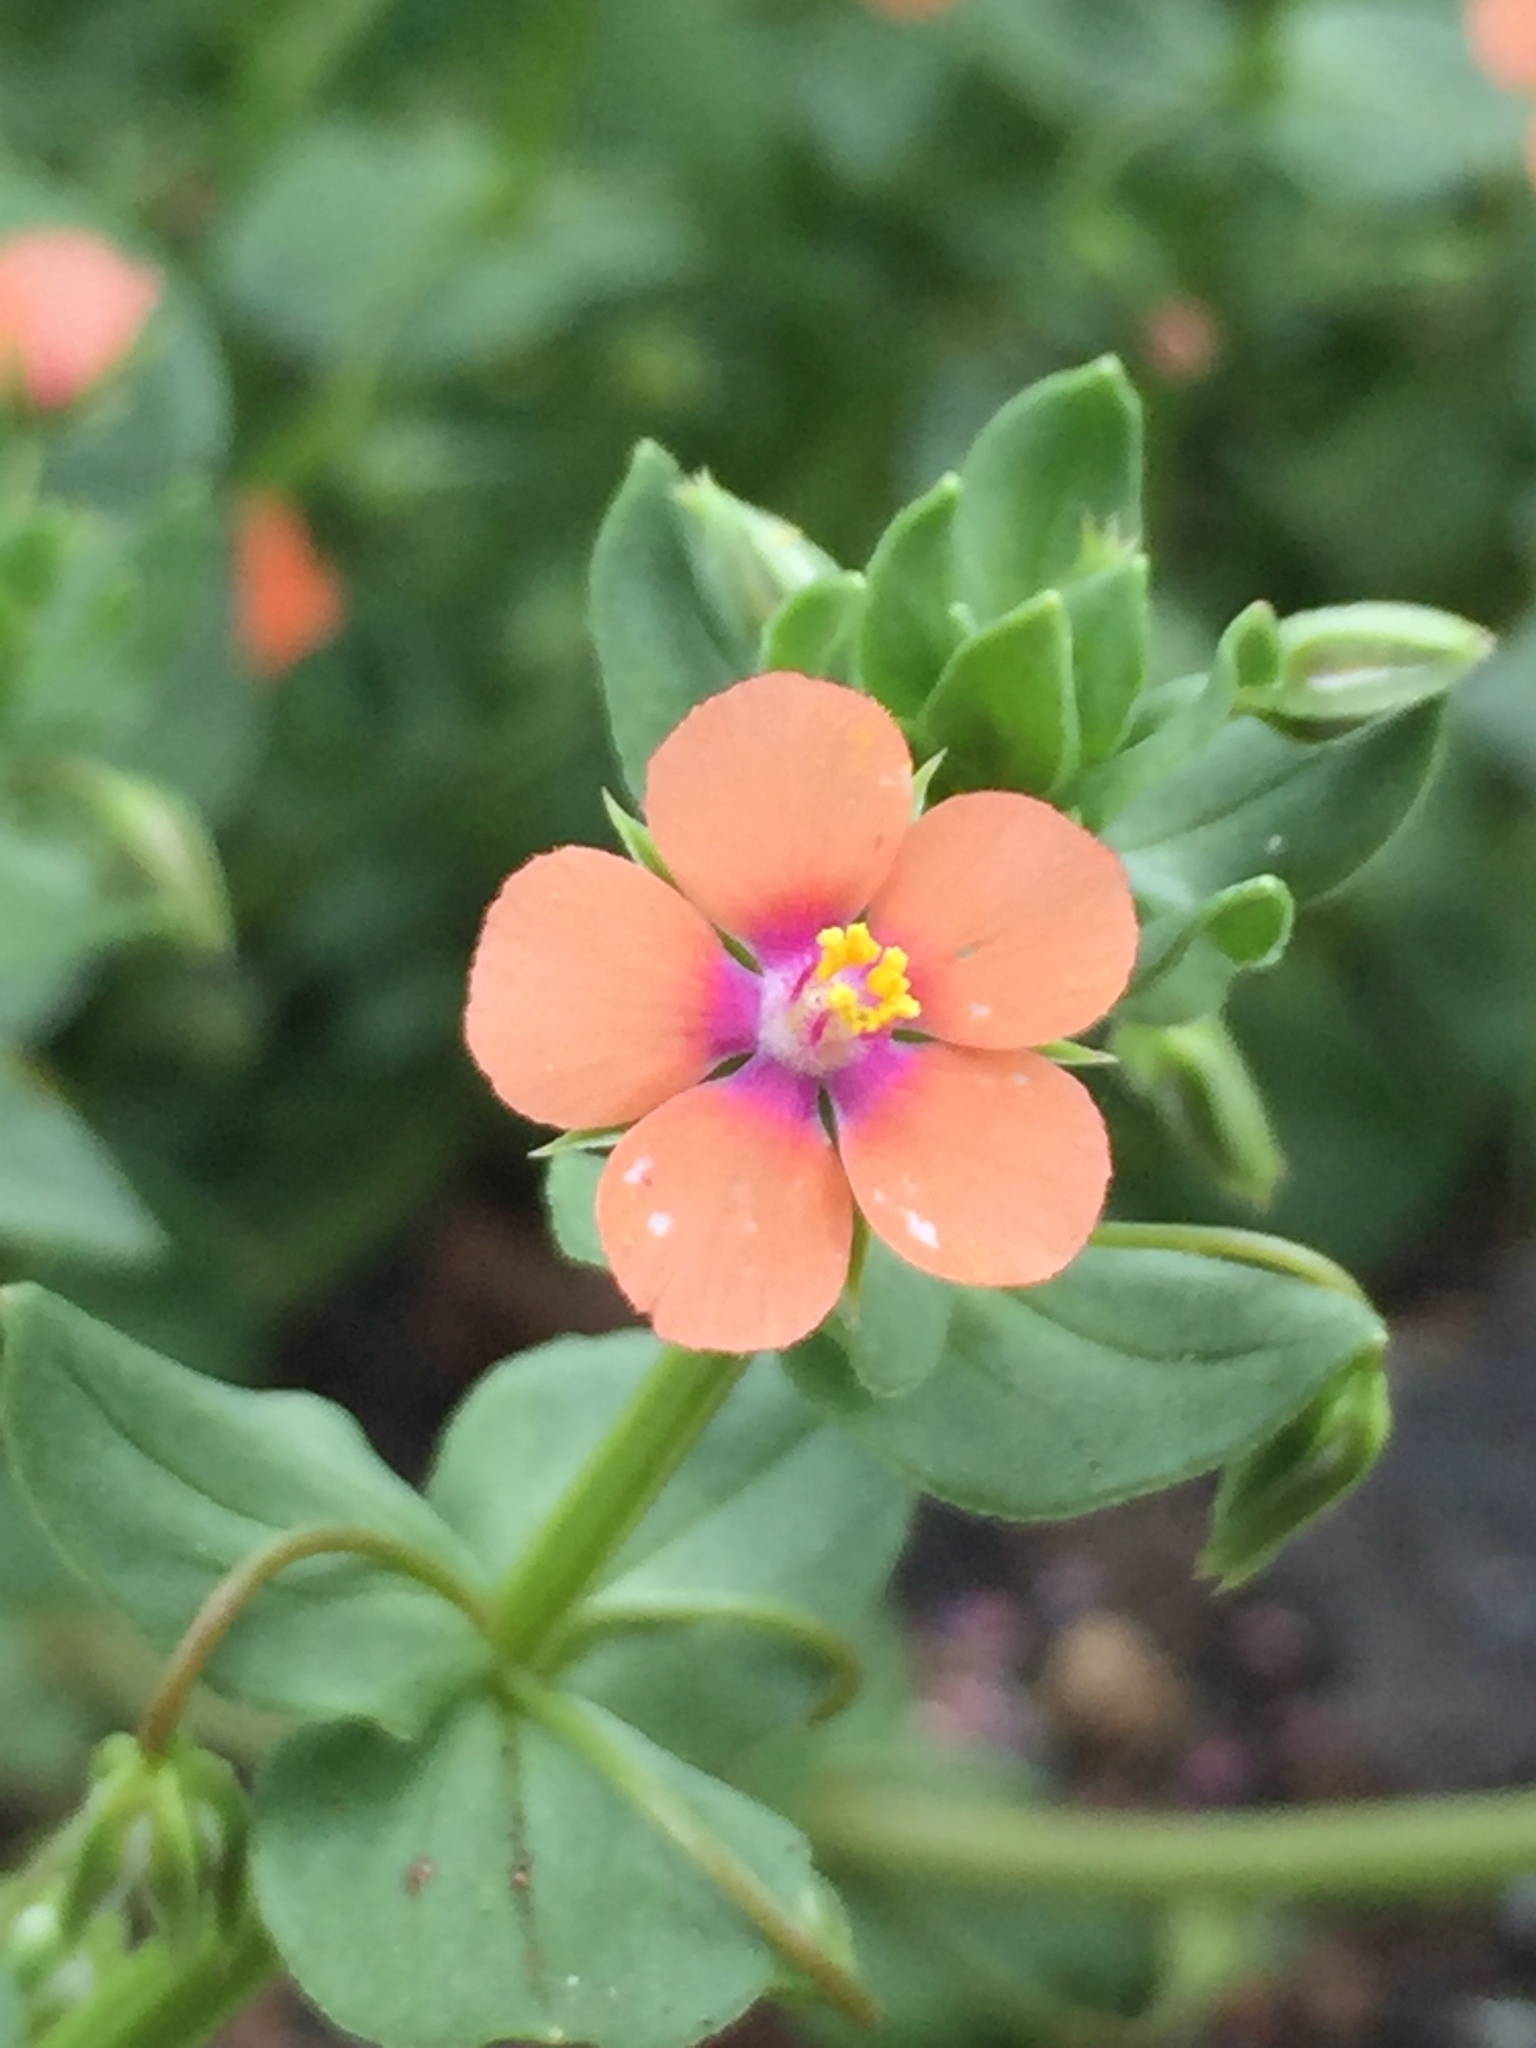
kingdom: Plantae
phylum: Tracheophyta
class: Magnoliopsida
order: Ericales
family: Primulaceae
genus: Lysimachia
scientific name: Lysimachia arvensis
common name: Scarlet pimpernel
